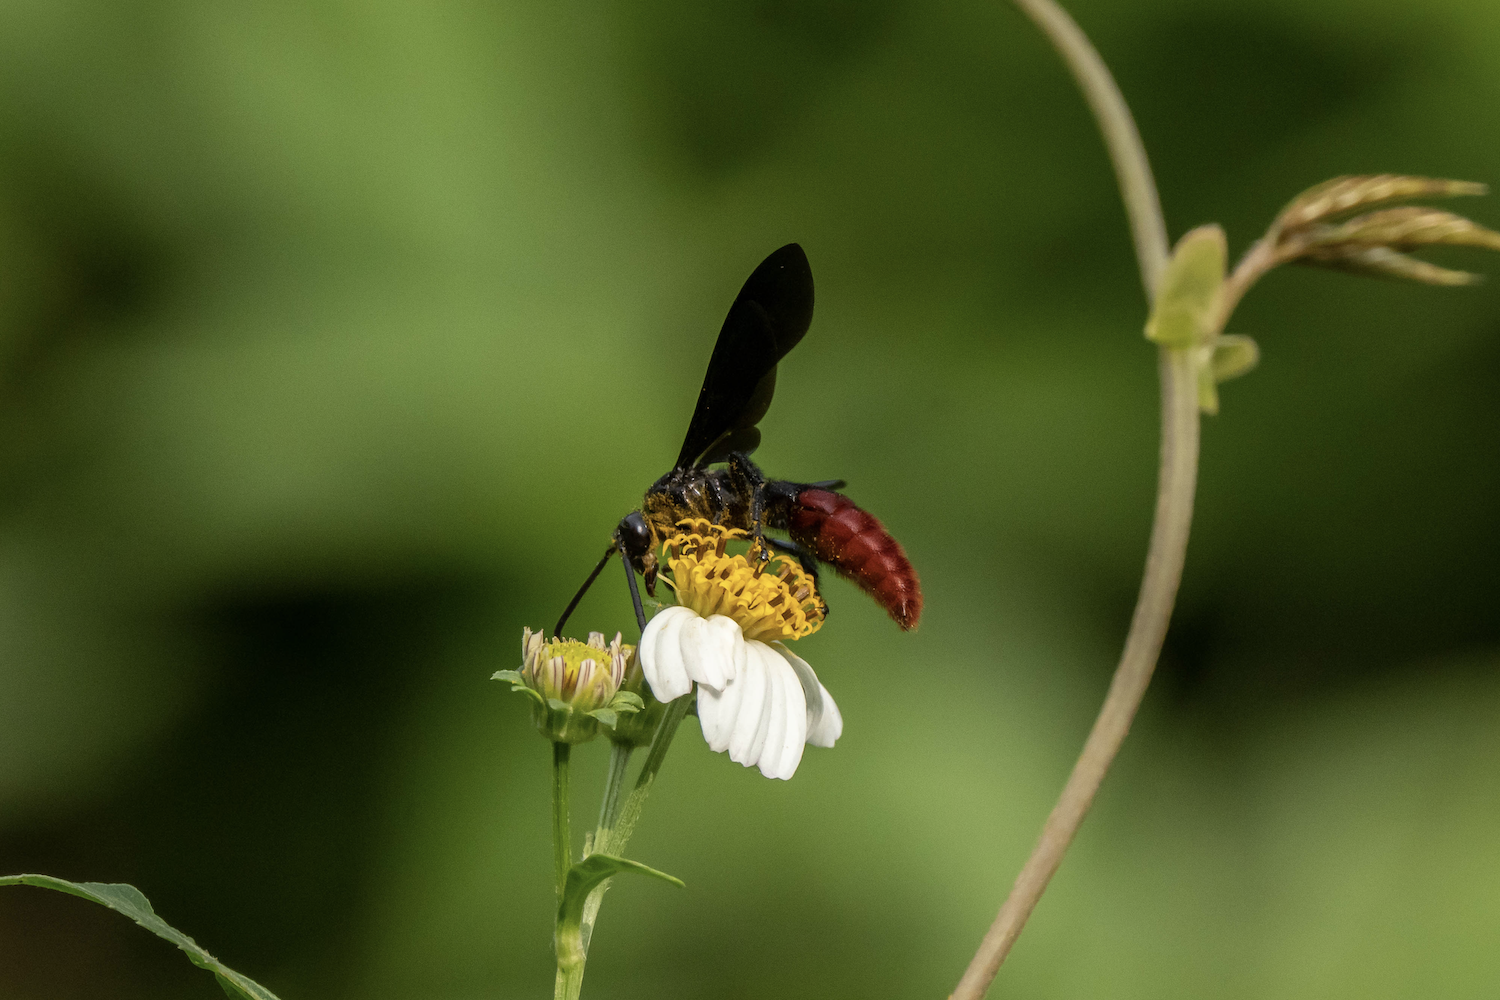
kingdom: Animalia
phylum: Arthropoda
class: Insecta
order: Hymenoptera
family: Scoliidae
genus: Liacos
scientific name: Liacos erythrosoma
